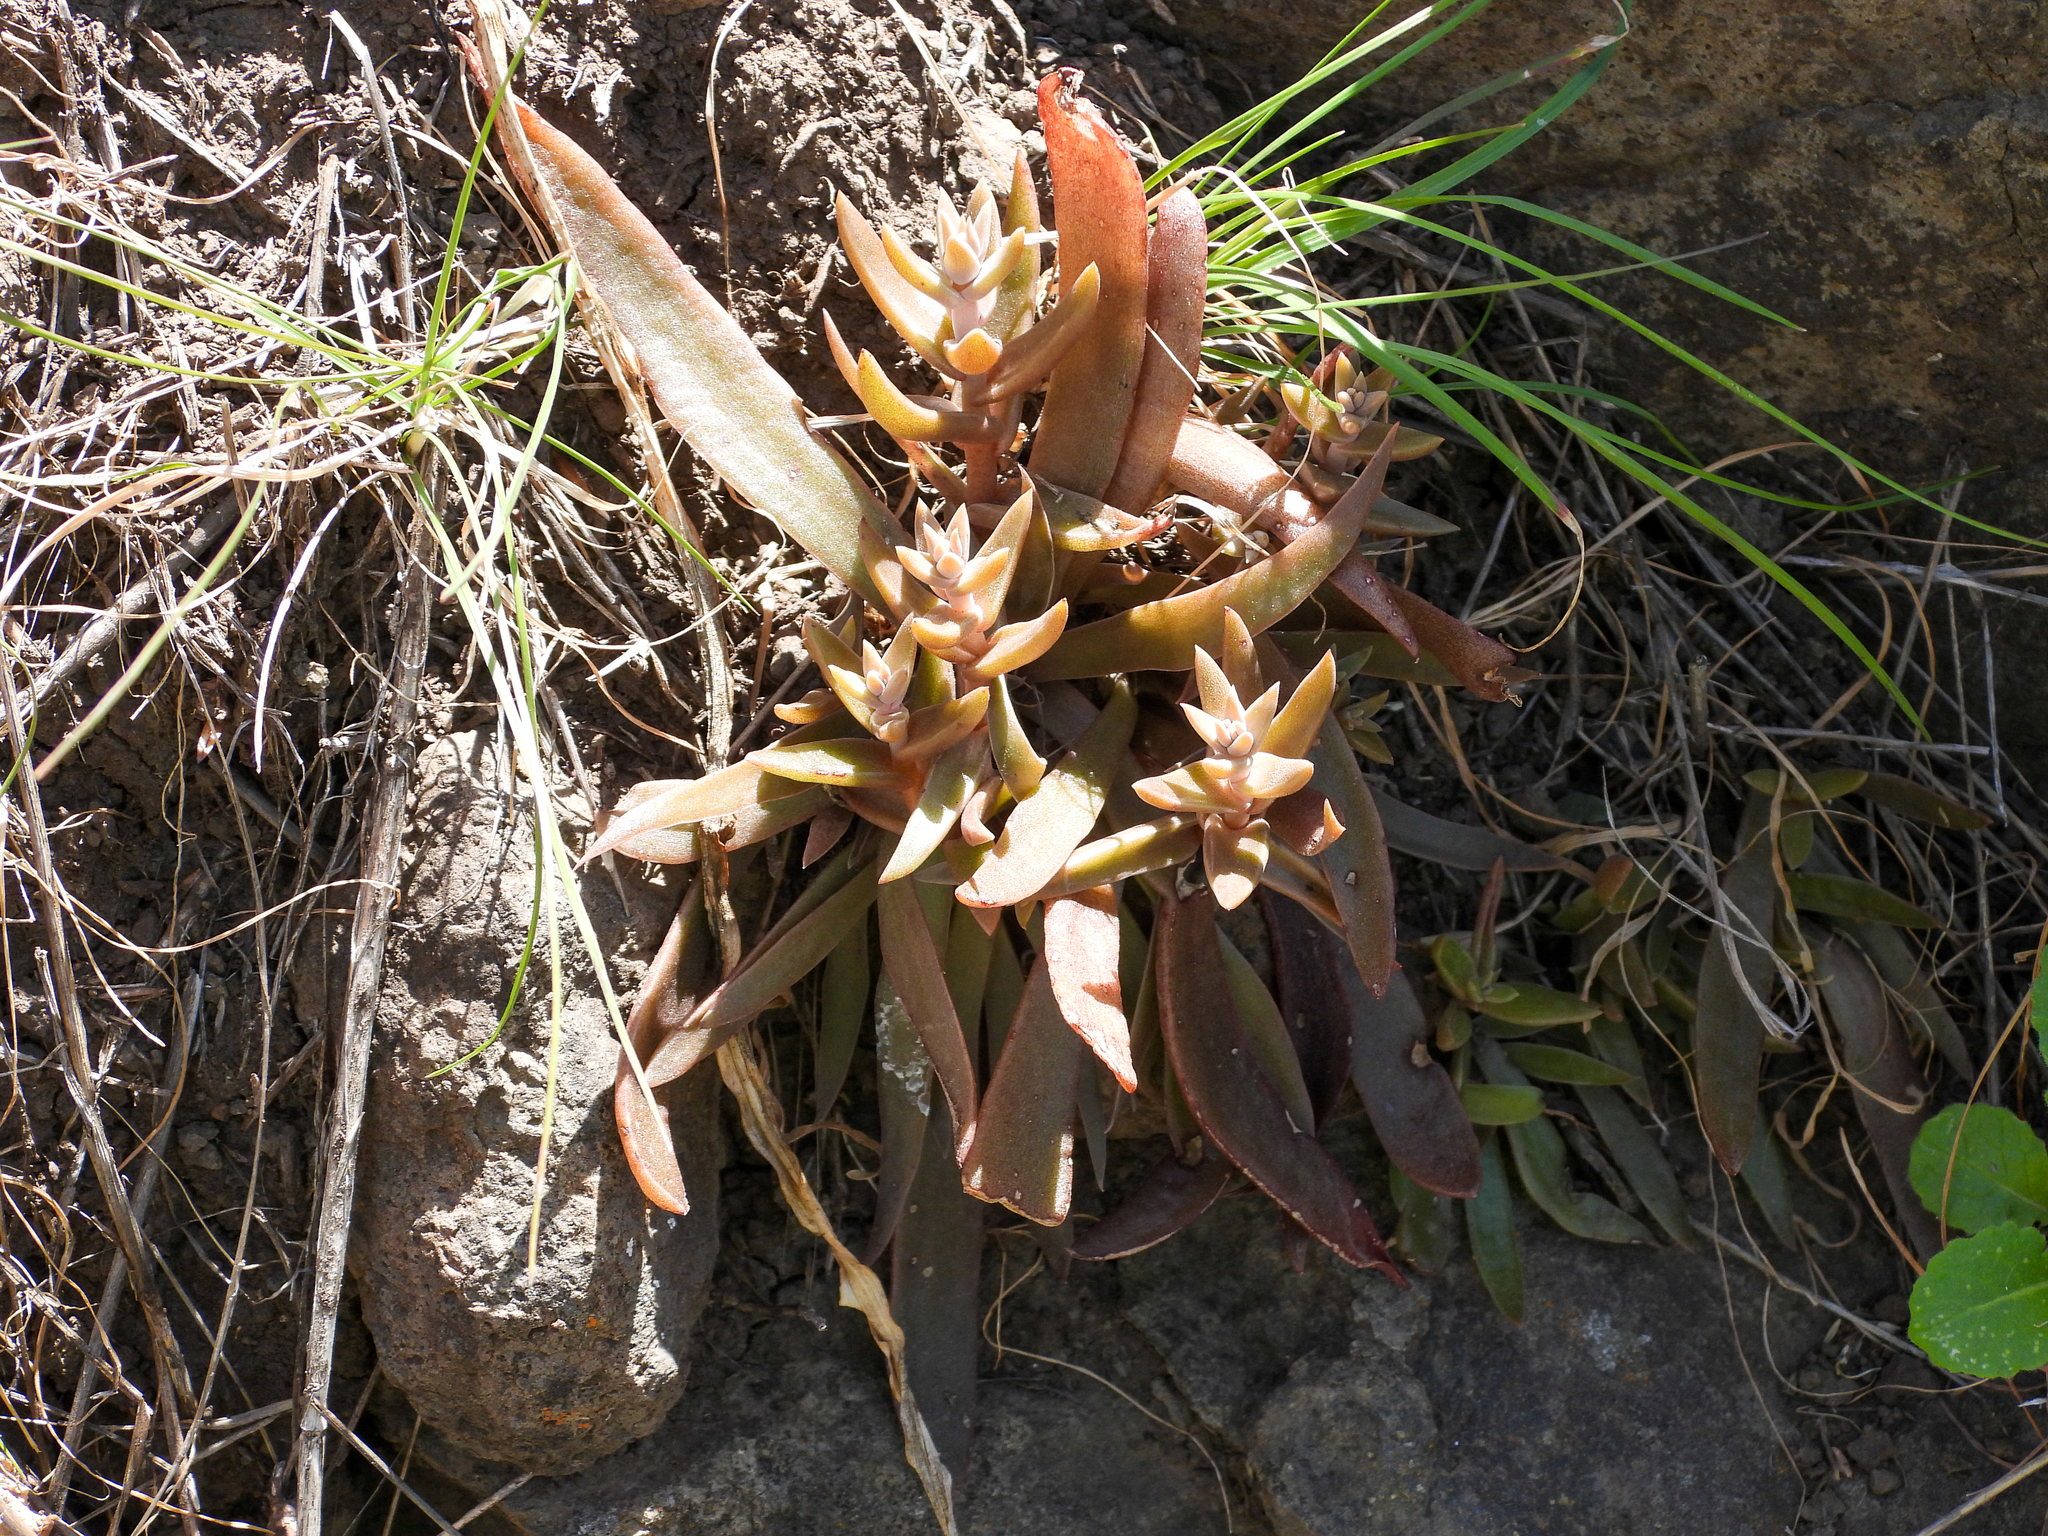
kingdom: Plantae
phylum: Tracheophyta
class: Magnoliopsida
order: Saxifragales
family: Crassulaceae
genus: Dudleya
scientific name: Dudleya parva
